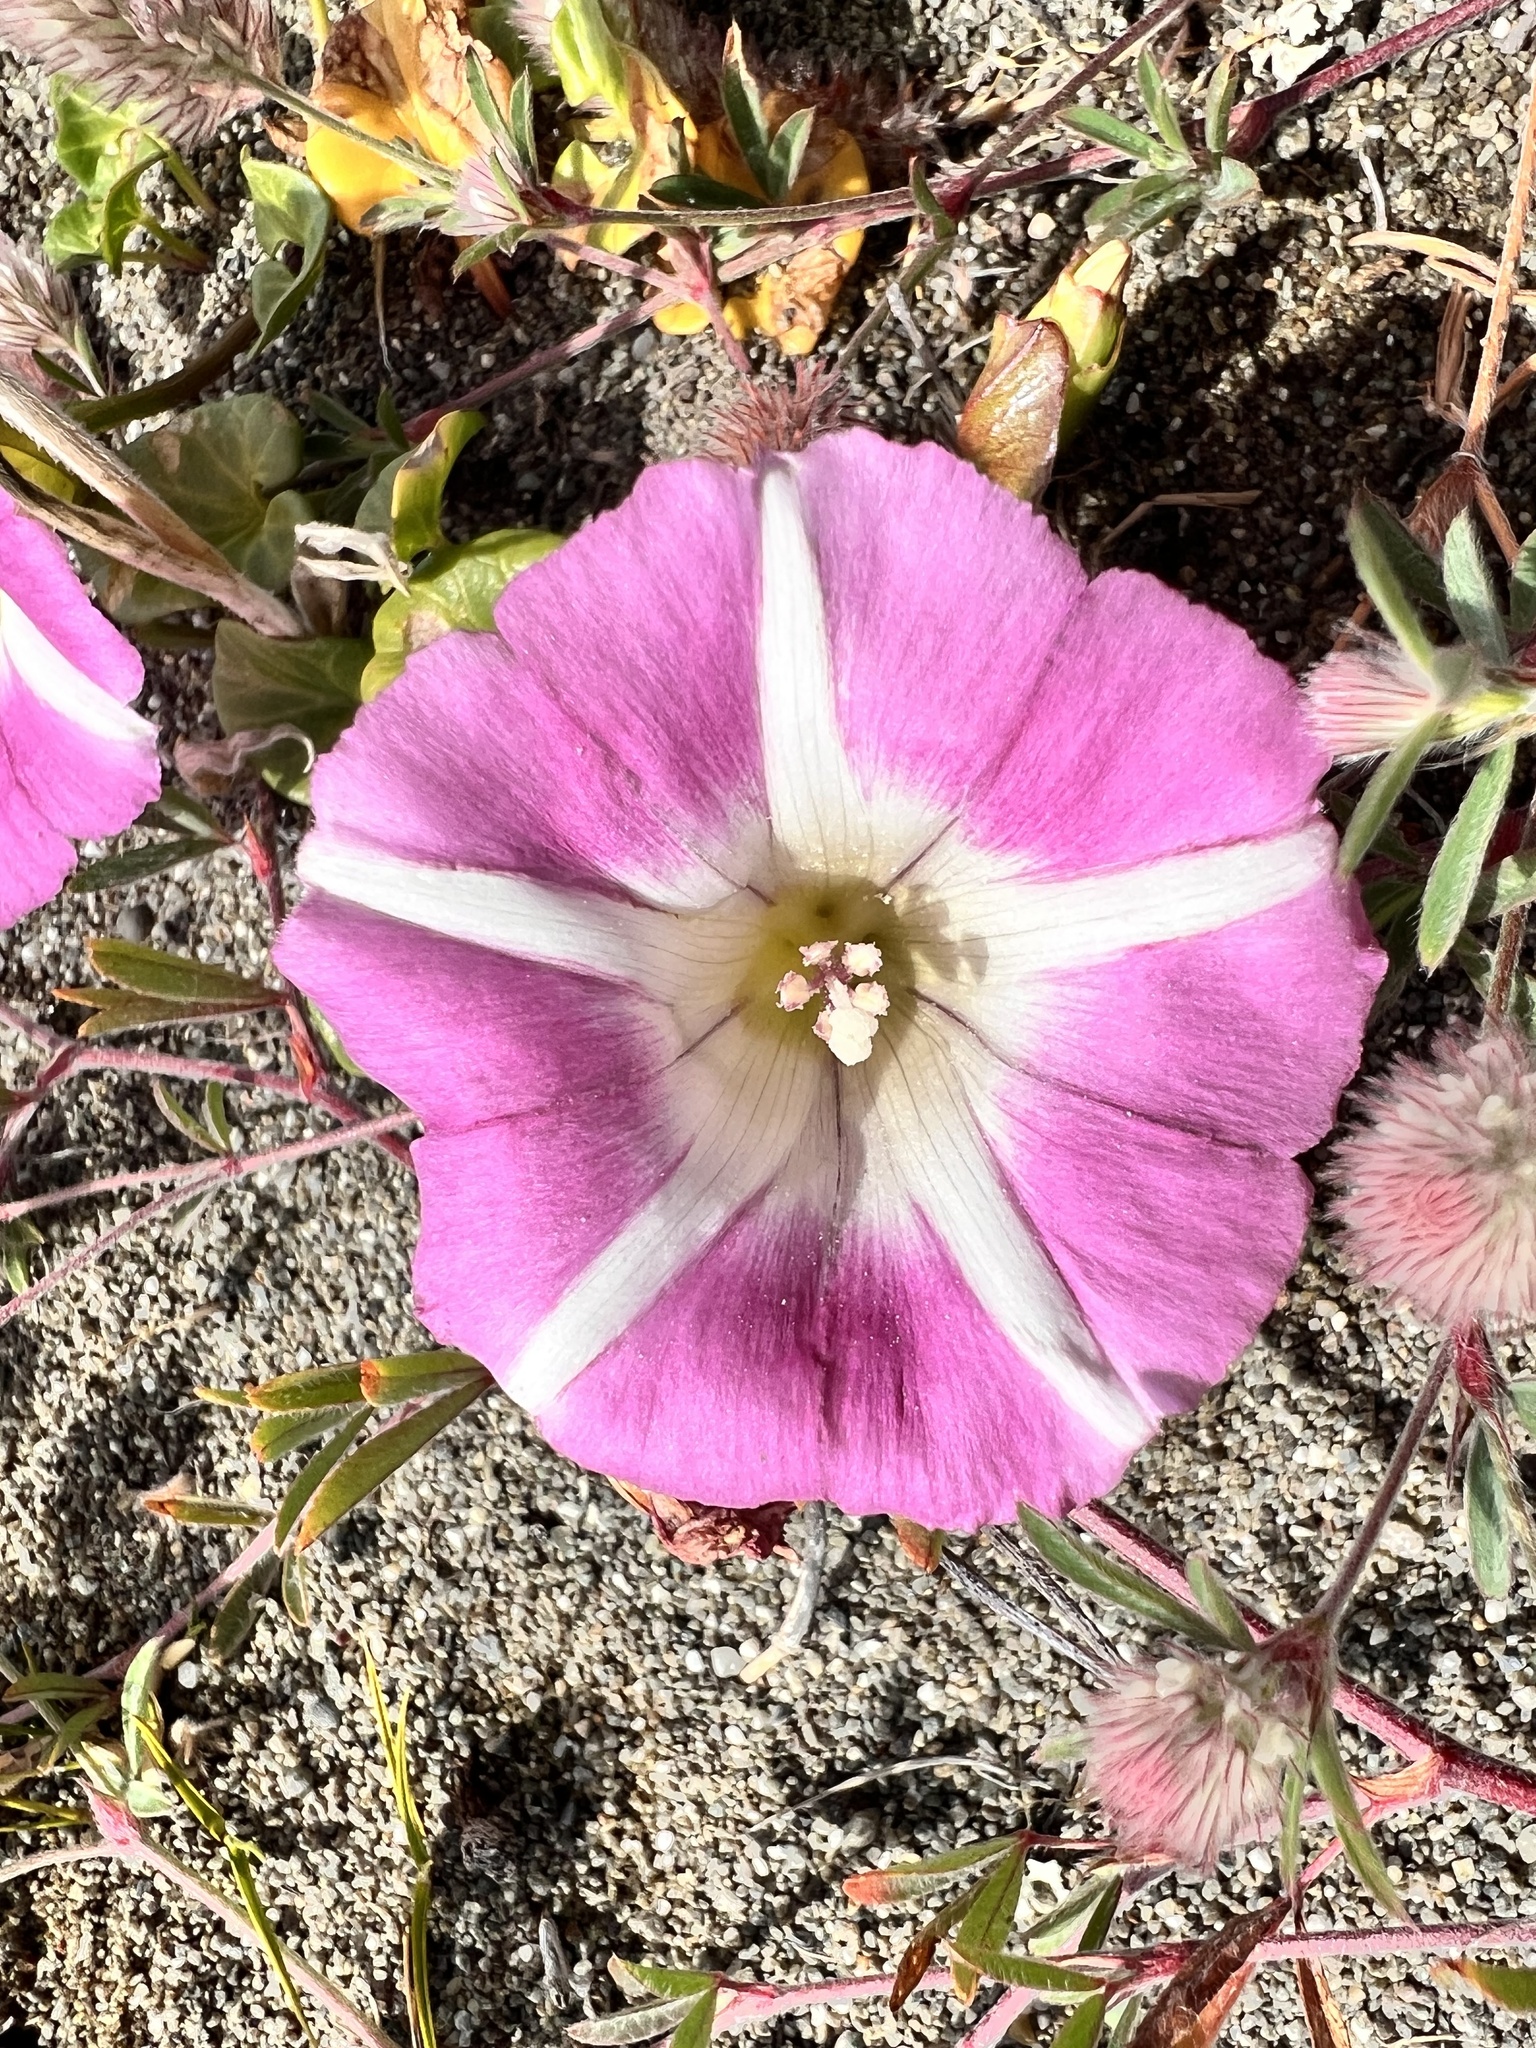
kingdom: Plantae
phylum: Tracheophyta
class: Magnoliopsida
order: Solanales
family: Convolvulaceae
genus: Calystegia
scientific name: Calystegia soldanella
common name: Sea bindweed
